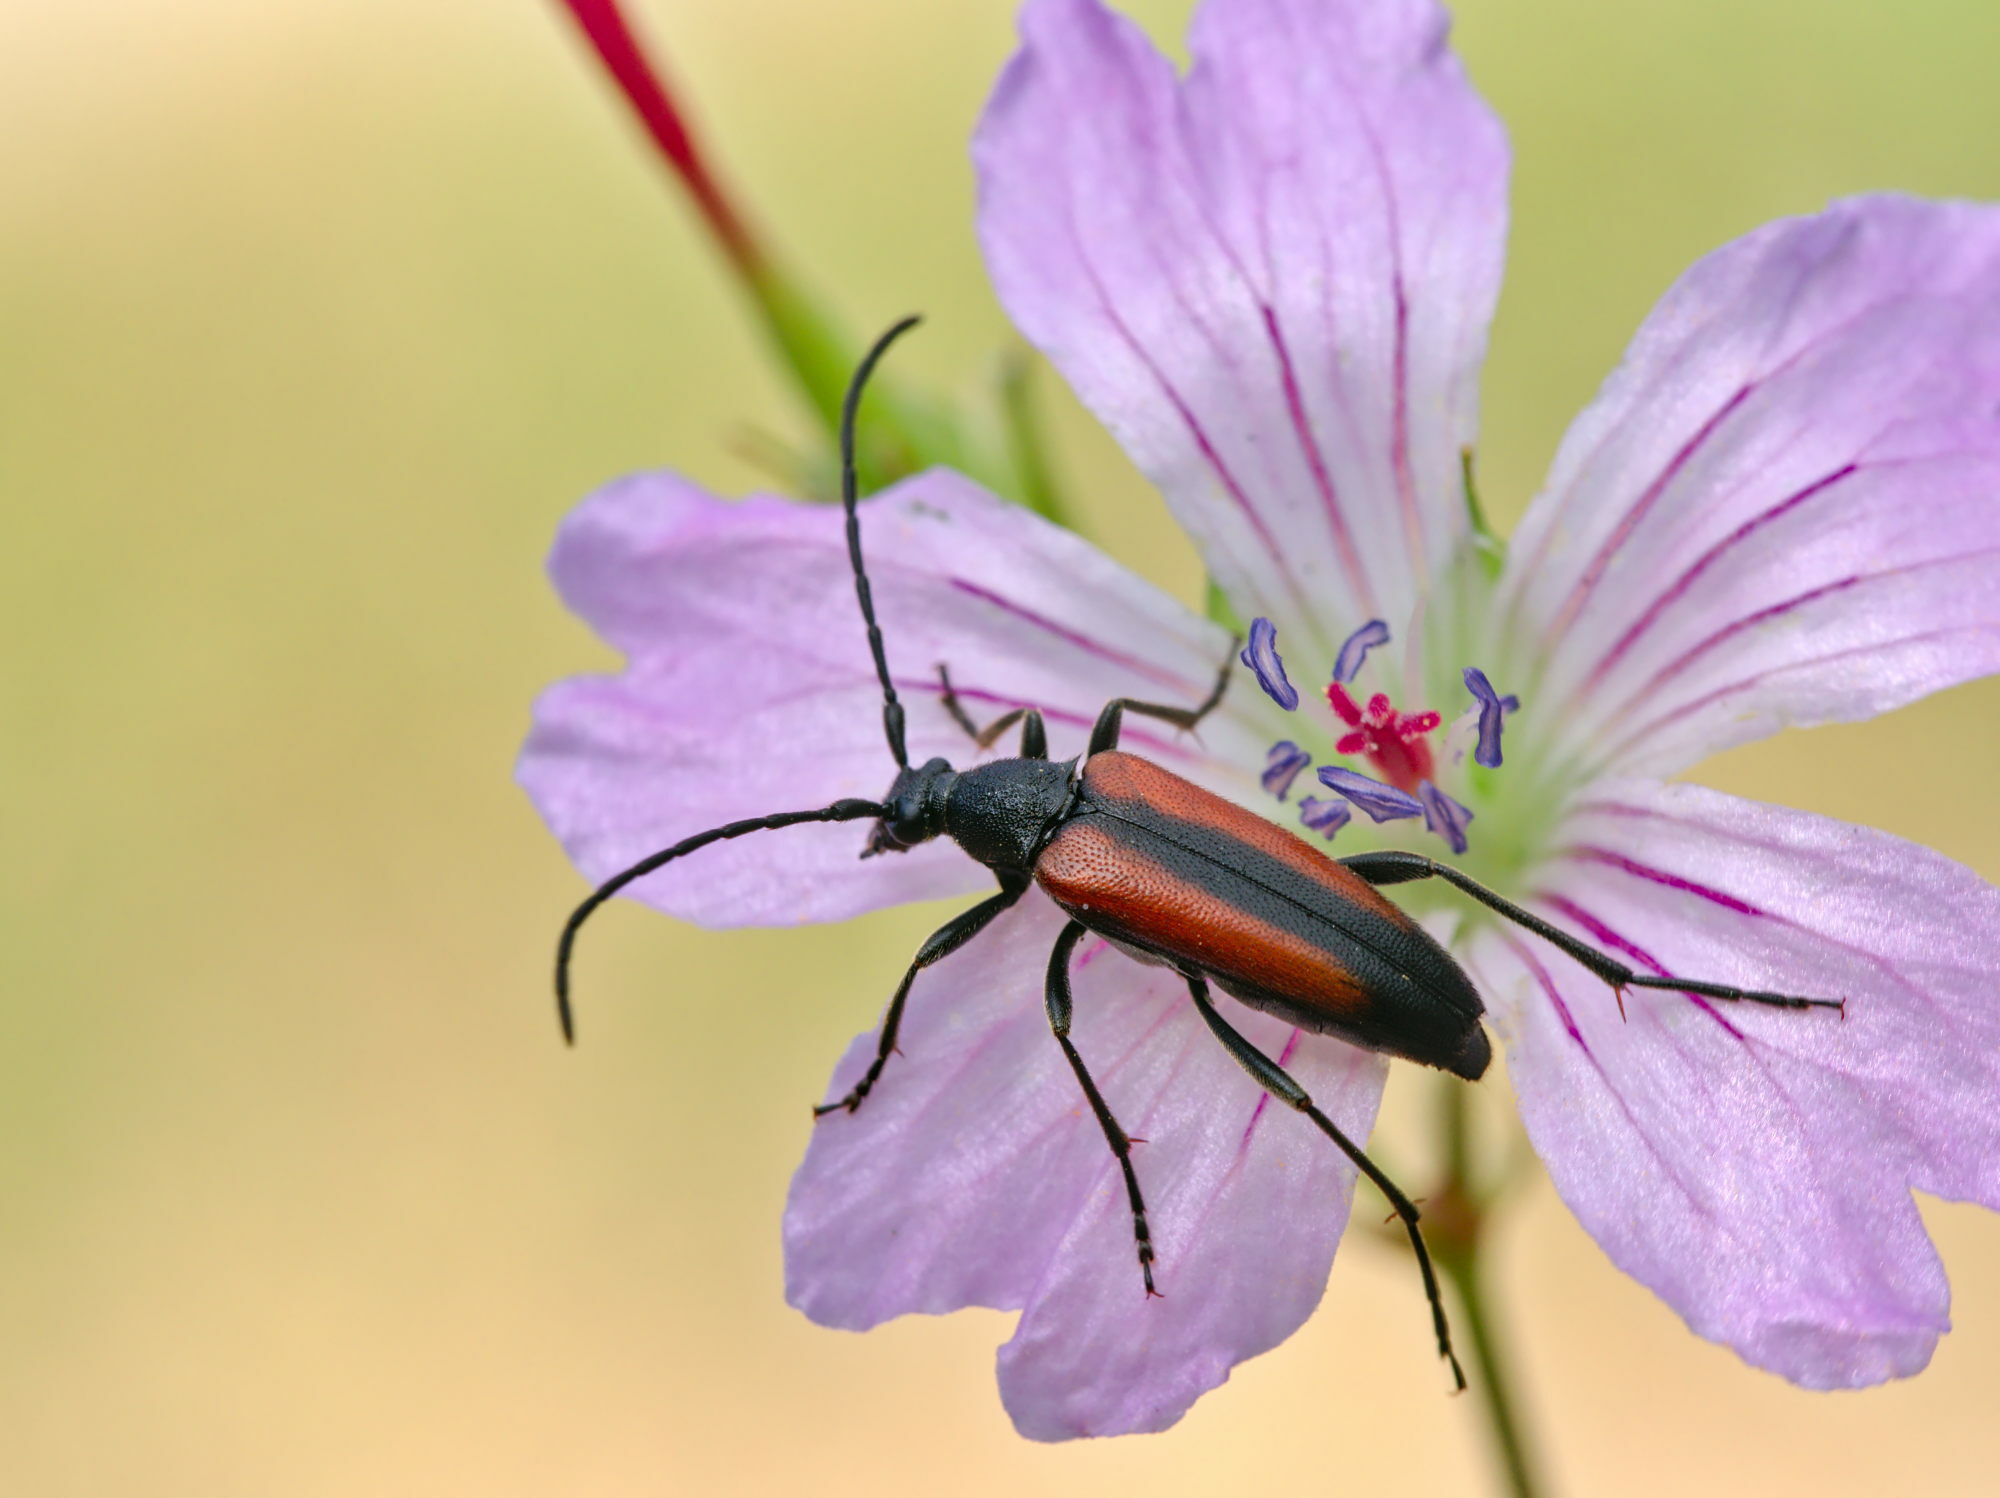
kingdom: Animalia
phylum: Arthropoda
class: Insecta
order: Coleoptera
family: Cerambycidae
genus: Stenurella
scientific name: Stenurella melanura
